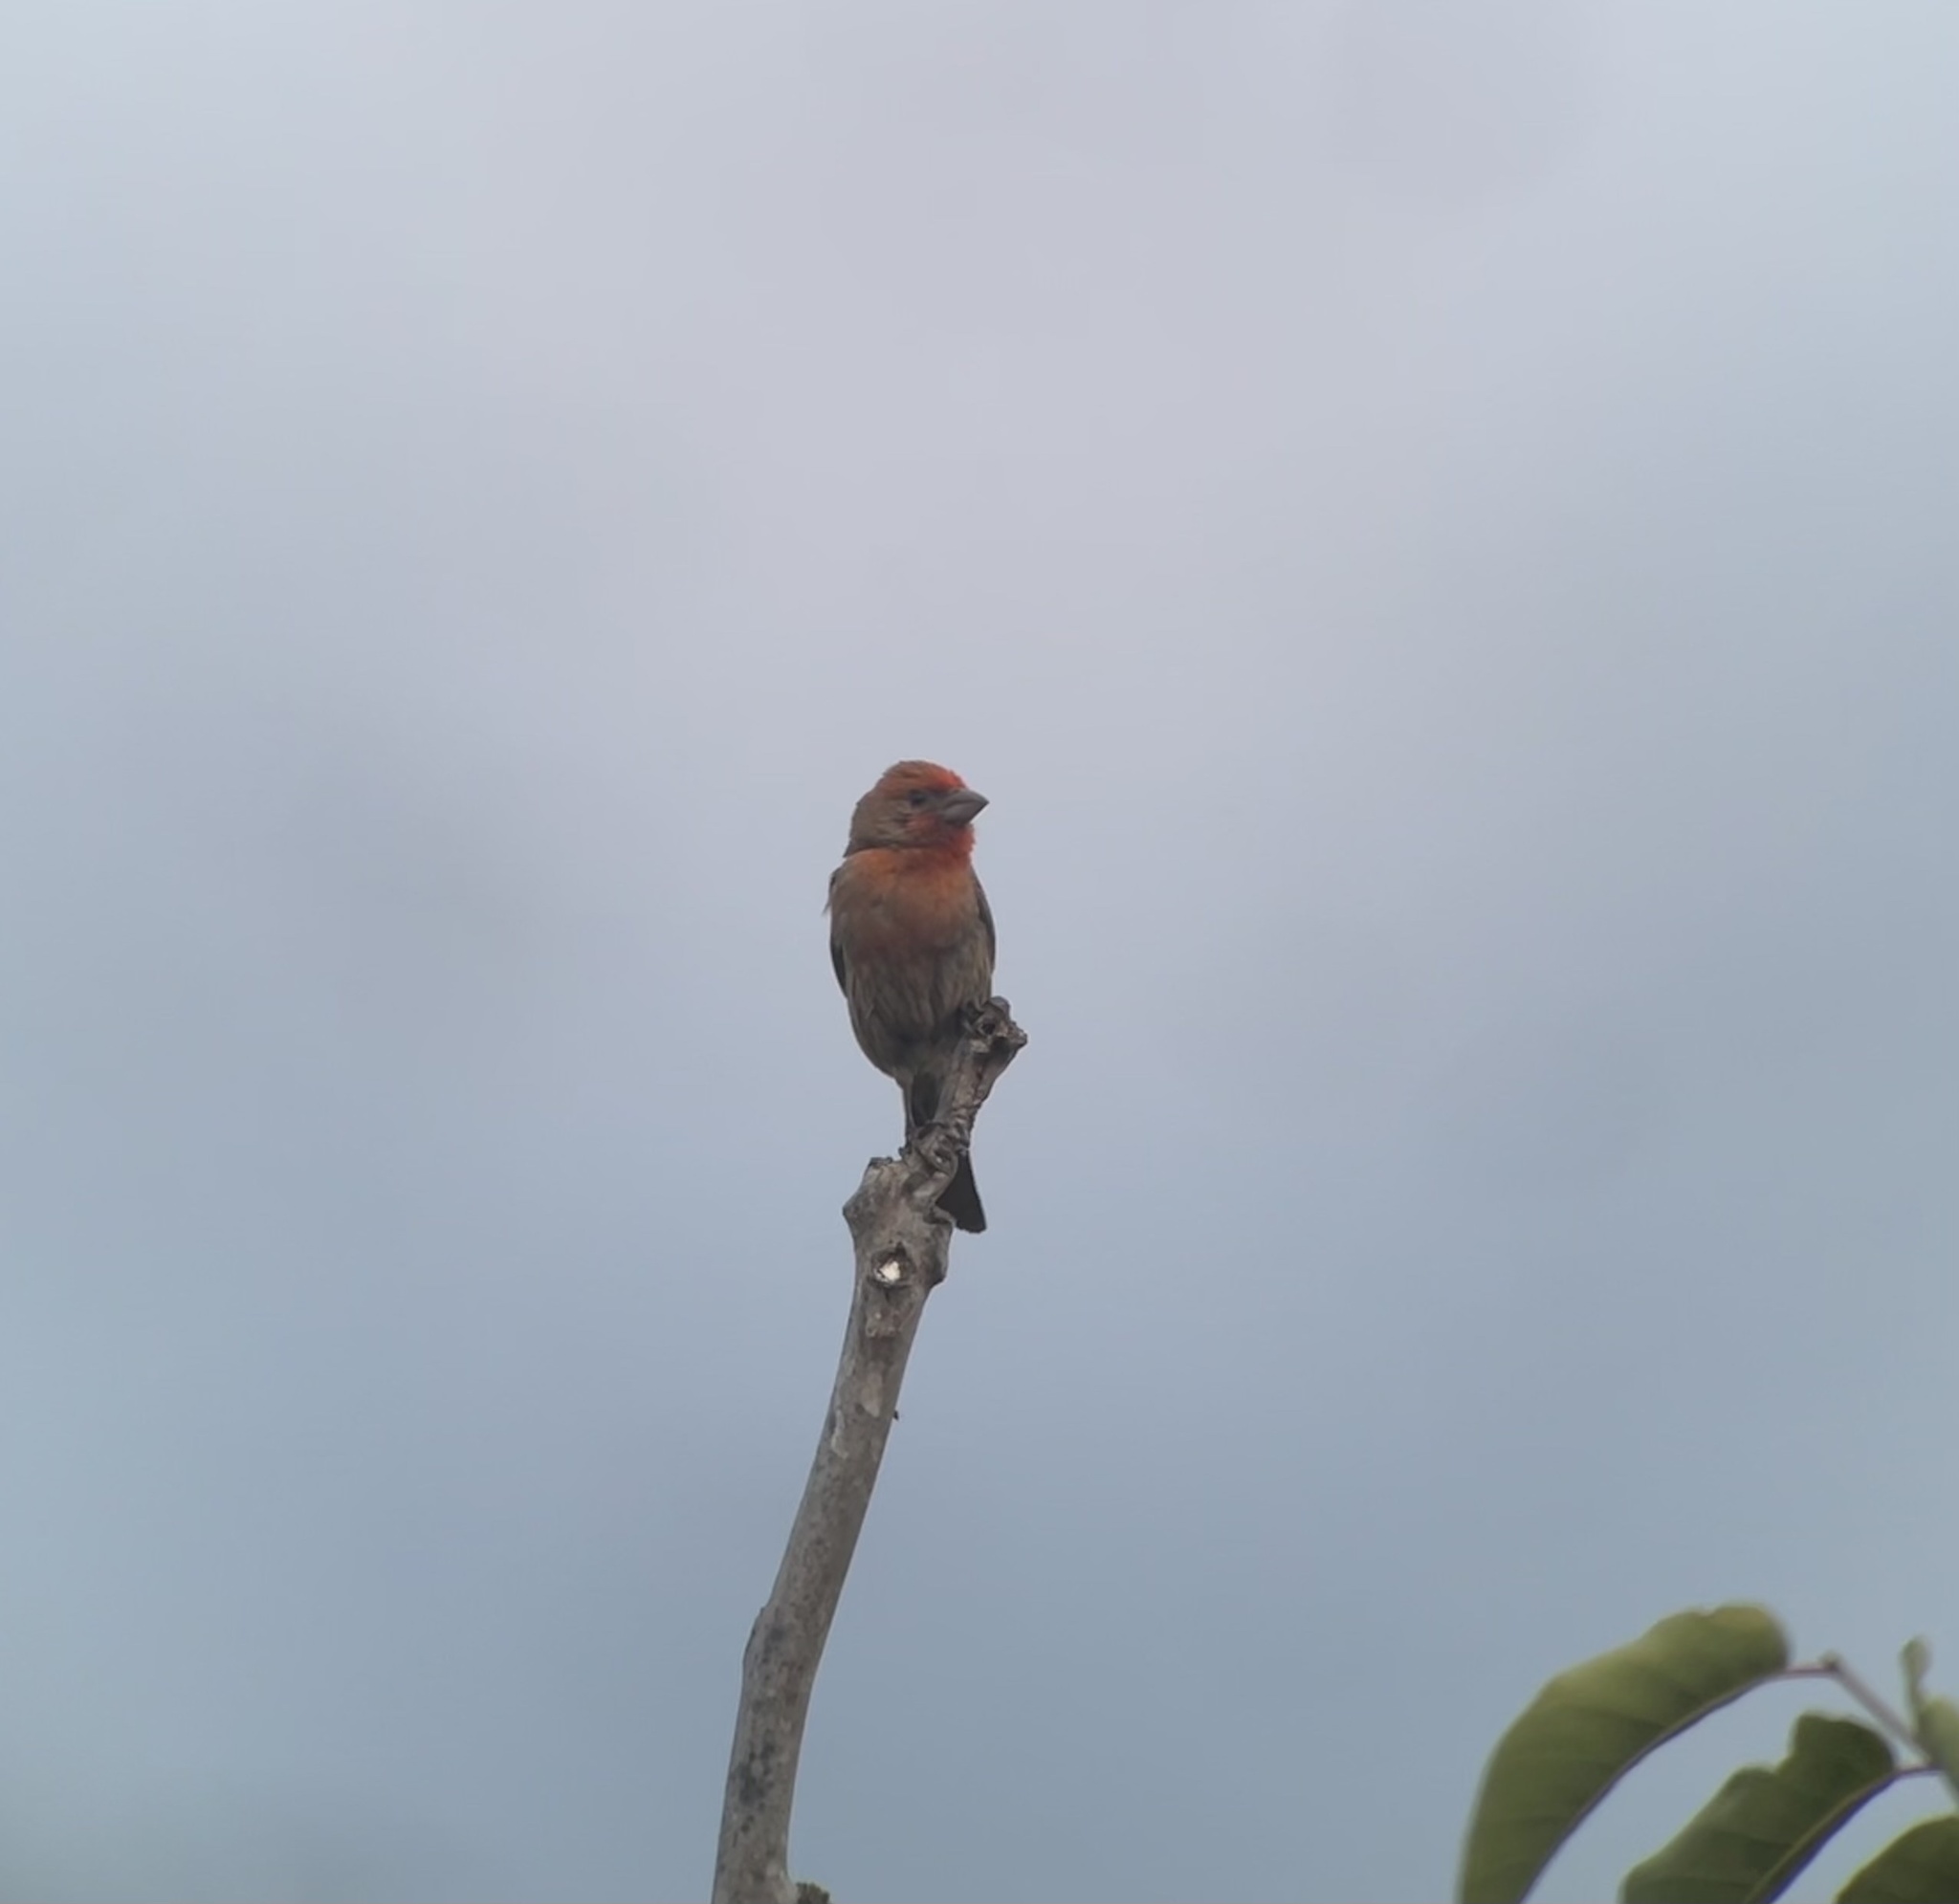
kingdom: Animalia
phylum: Chordata
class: Aves
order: Passeriformes
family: Fringillidae
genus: Haemorhous
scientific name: Haemorhous mexicanus
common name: House finch
